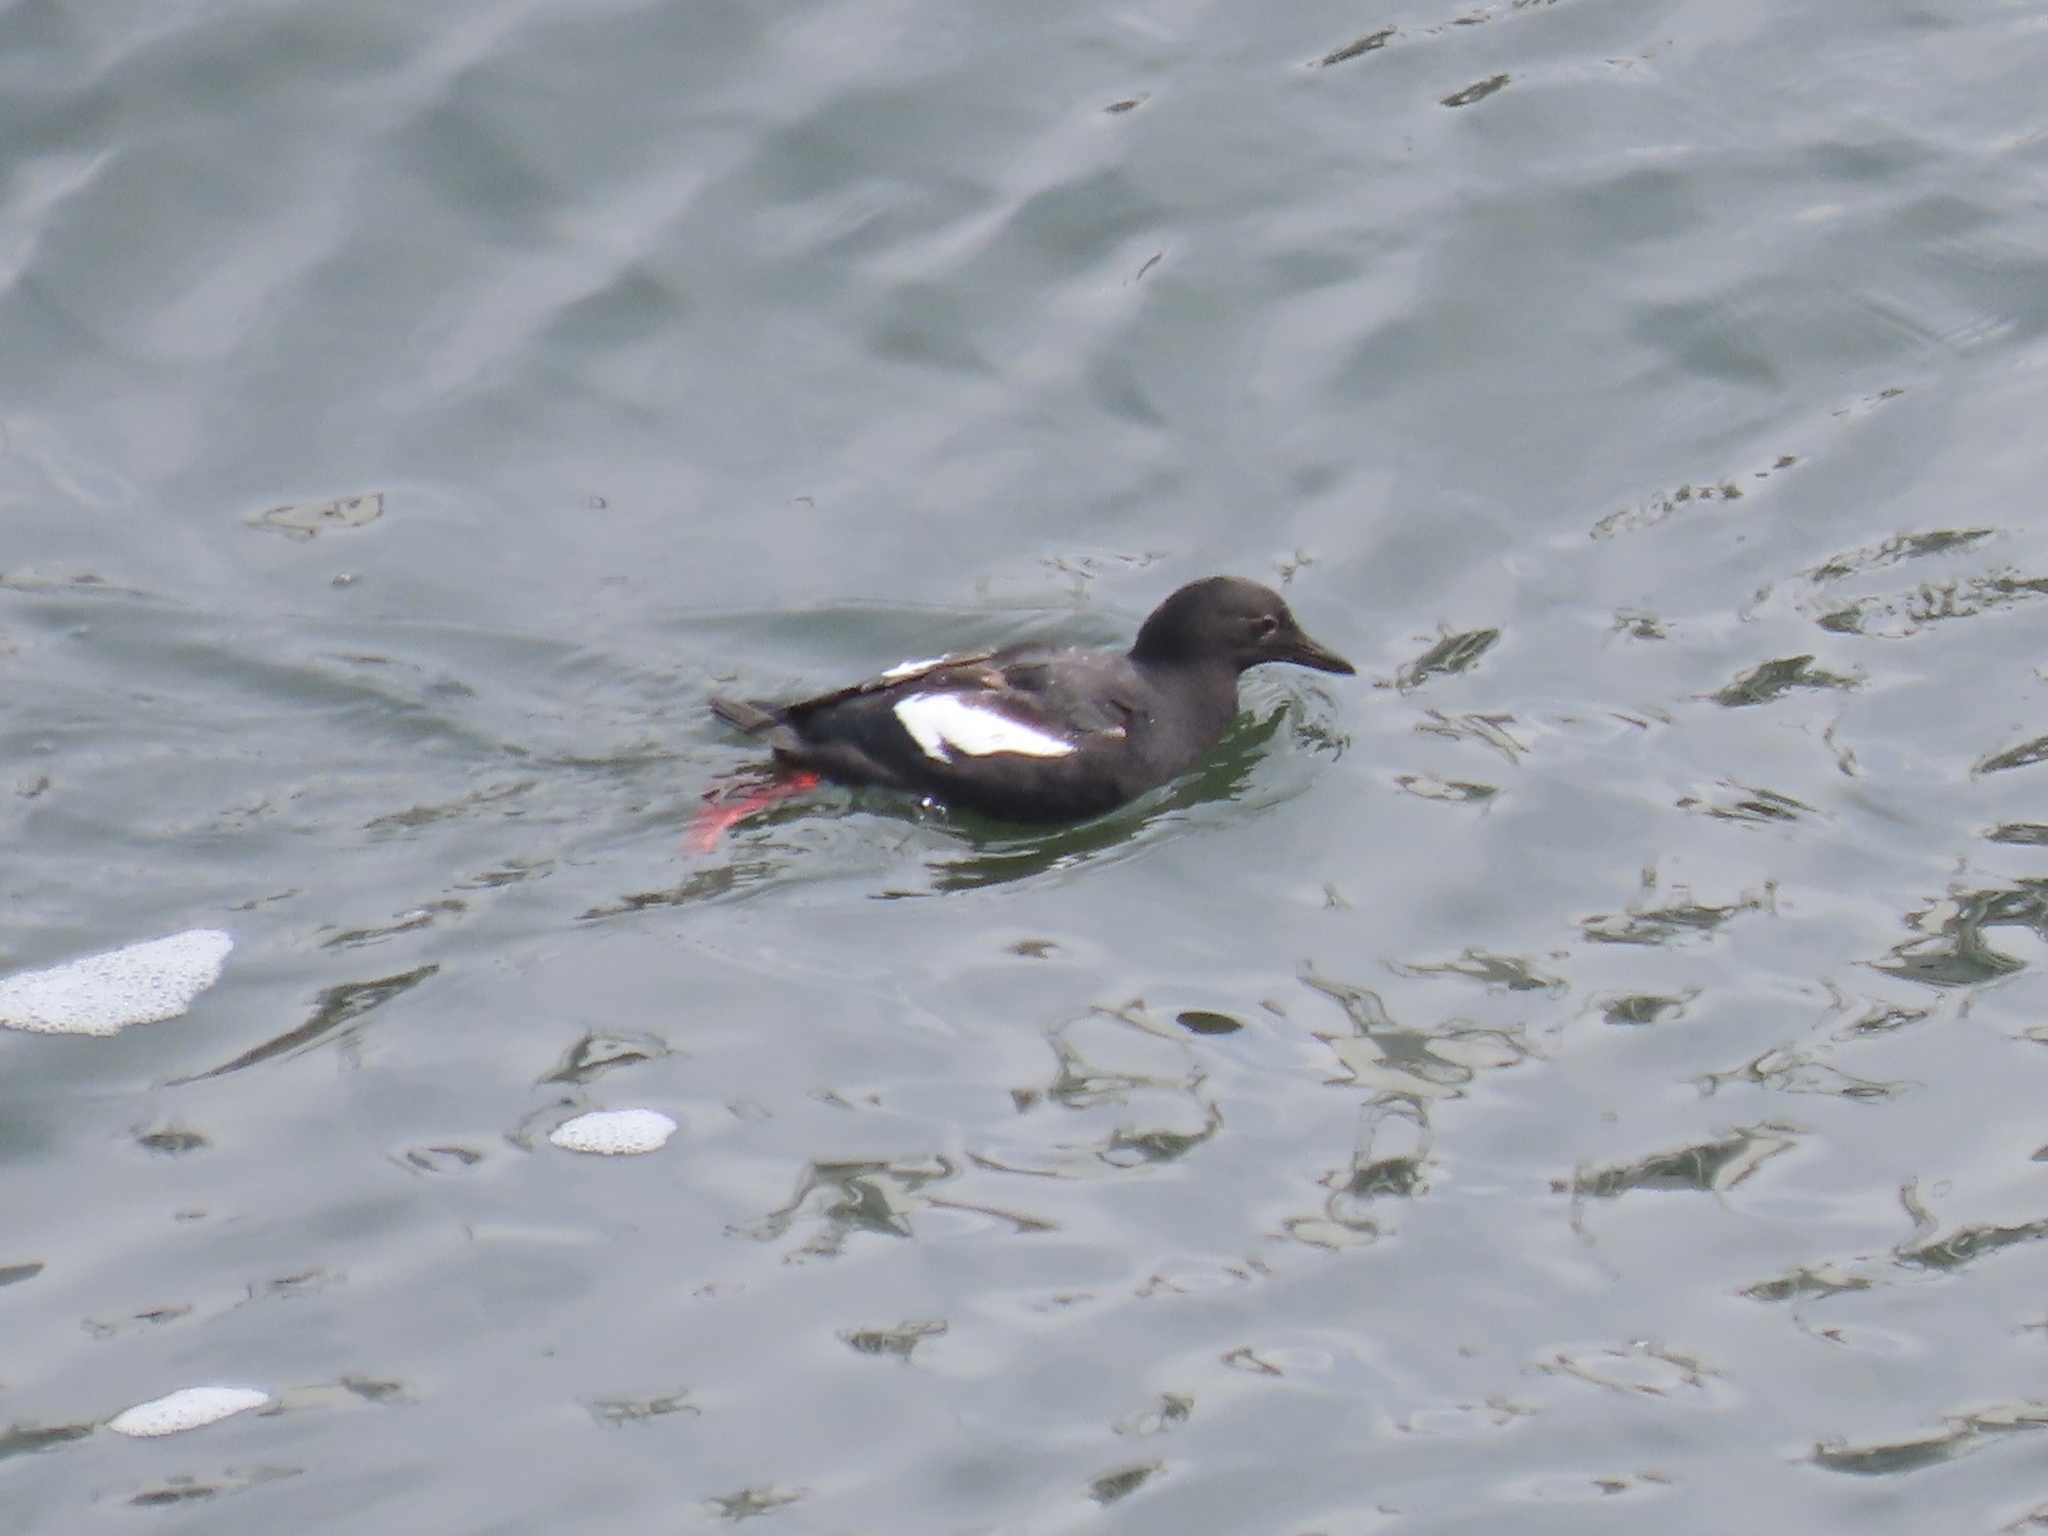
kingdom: Animalia
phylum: Chordata
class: Aves
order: Charadriiformes
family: Alcidae
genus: Cepphus
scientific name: Cepphus columba
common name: Pigeon guillemot
